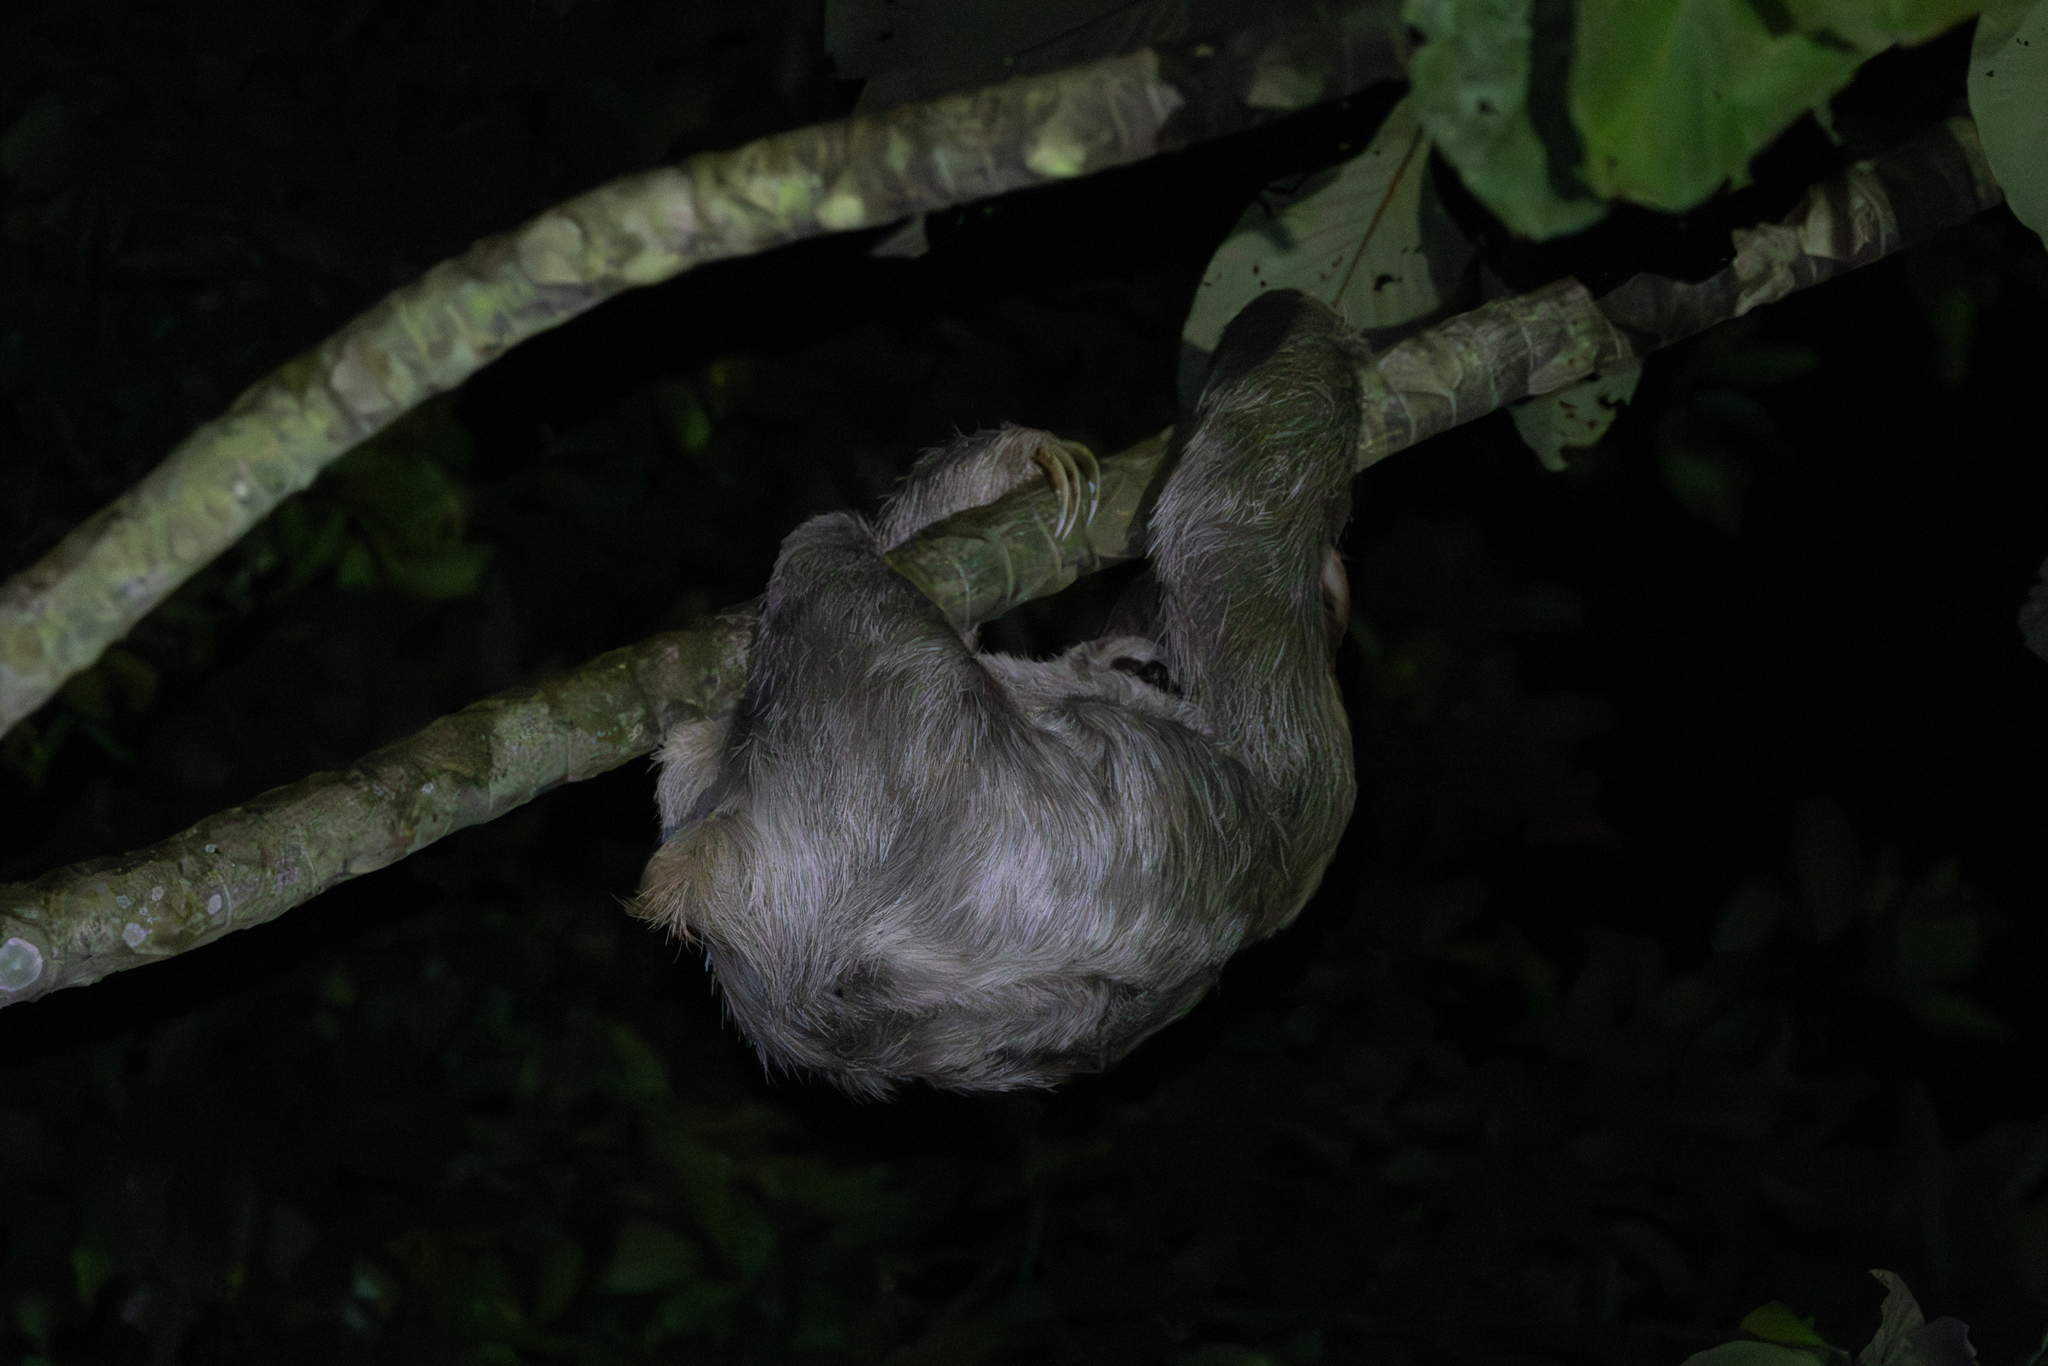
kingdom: Animalia
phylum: Chordata
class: Mammalia
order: Pilosa
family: Bradypodidae
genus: Bradypus
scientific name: Bradypus variegatus
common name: Brown-throated three-toed sloth
